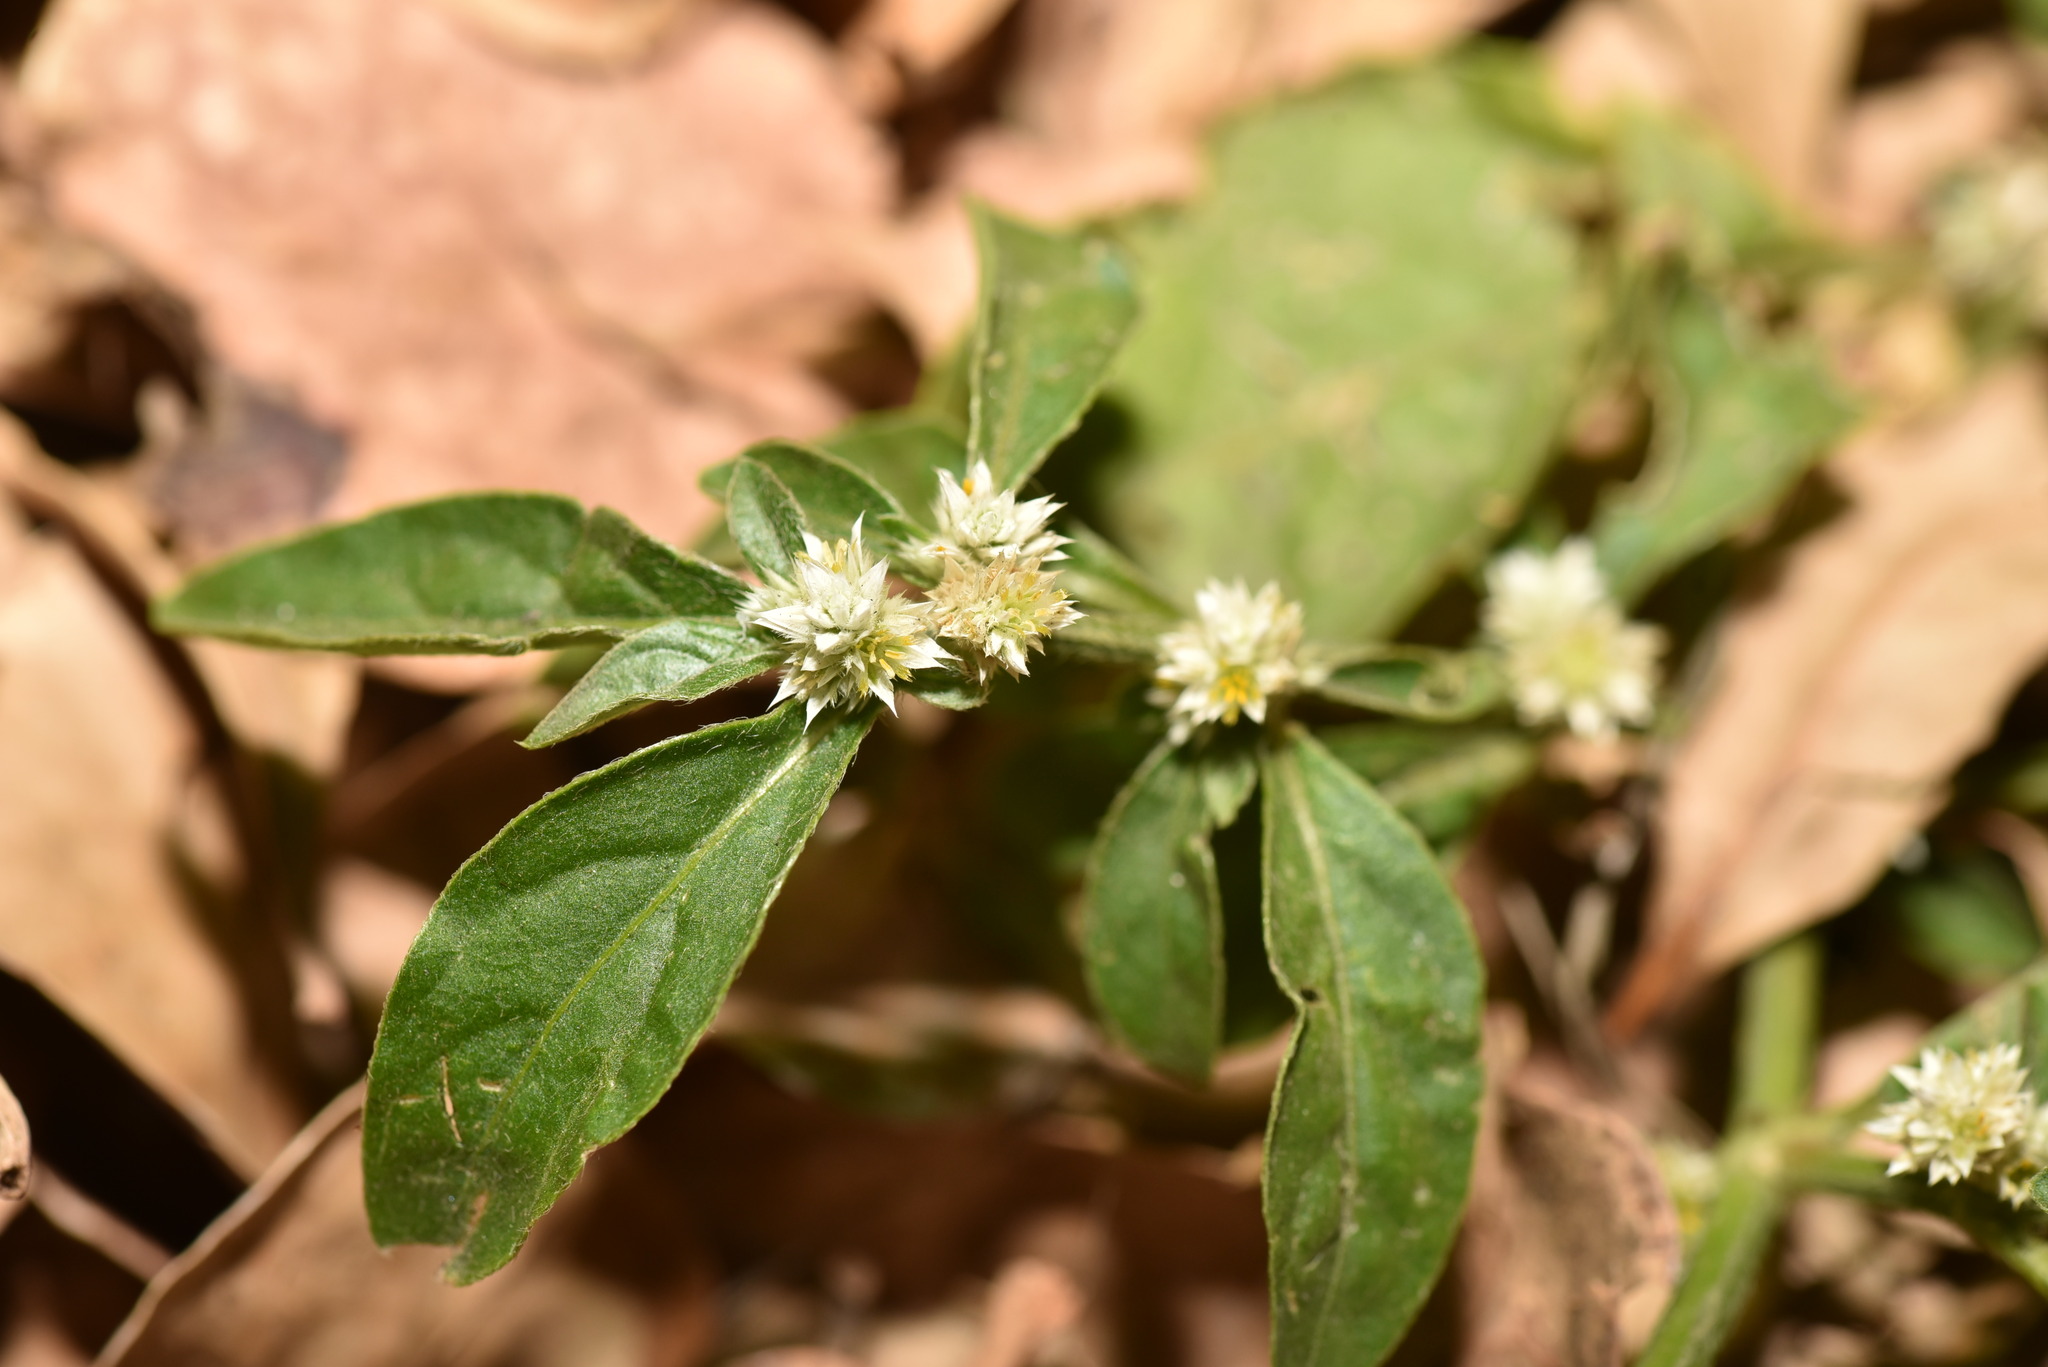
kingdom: Plantae
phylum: Tracheophyta
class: Magnoliopsida
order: Caryophyllales
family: Amaranthaceae
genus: Alternanthera
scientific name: Alternanthera ficoidea
